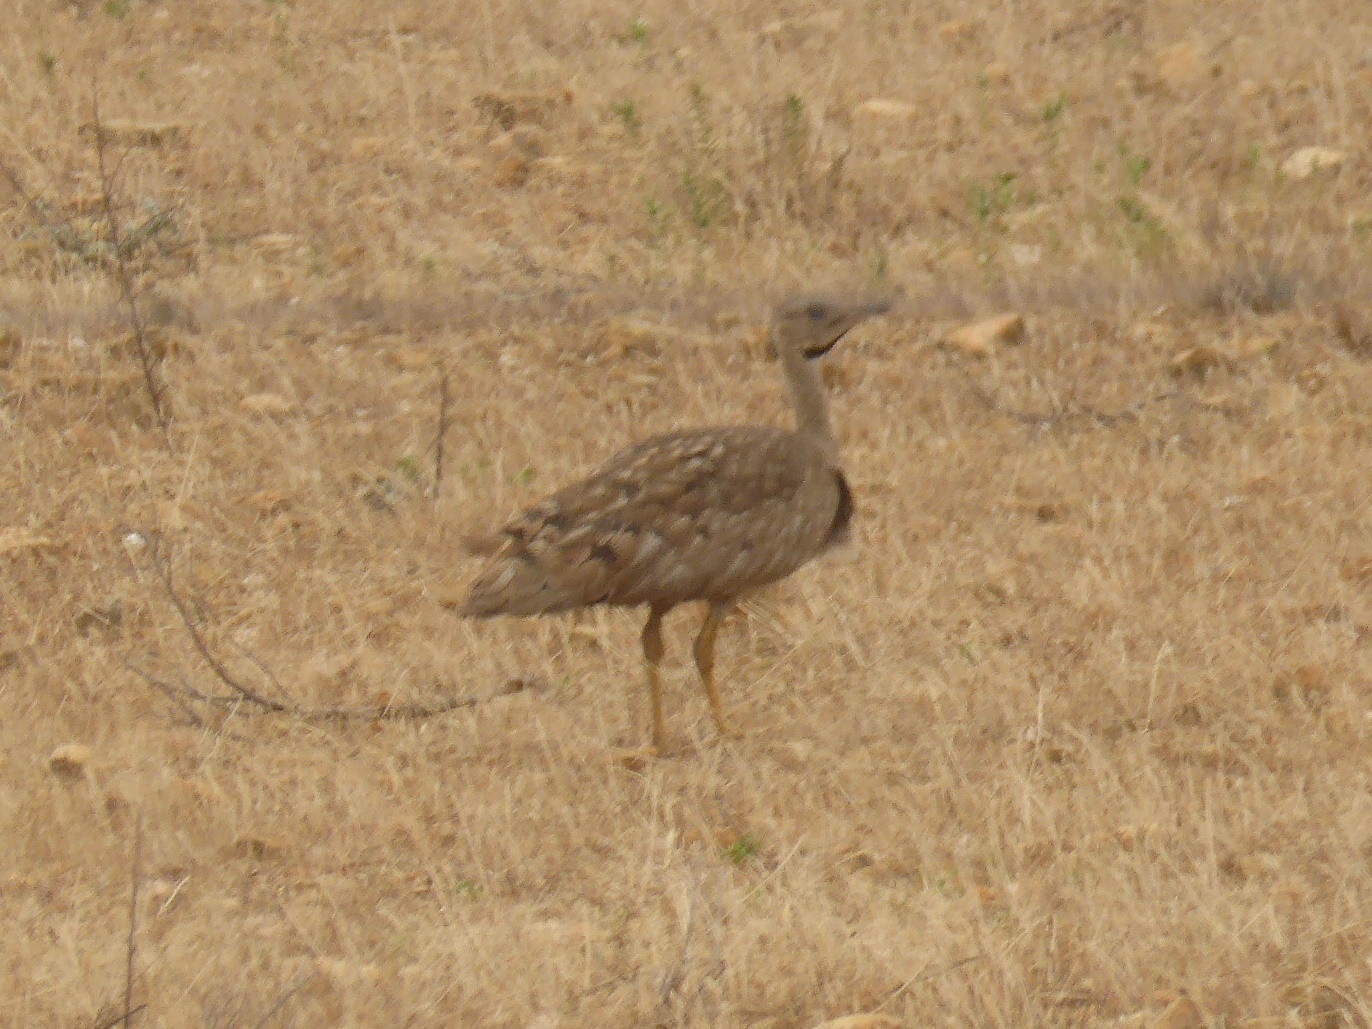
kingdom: Animalia
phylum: Chordata
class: Aves
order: Otidiformes
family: Otididae
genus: Eupodotis
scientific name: Eupodotis vigorsii
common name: Karoo korhaan
